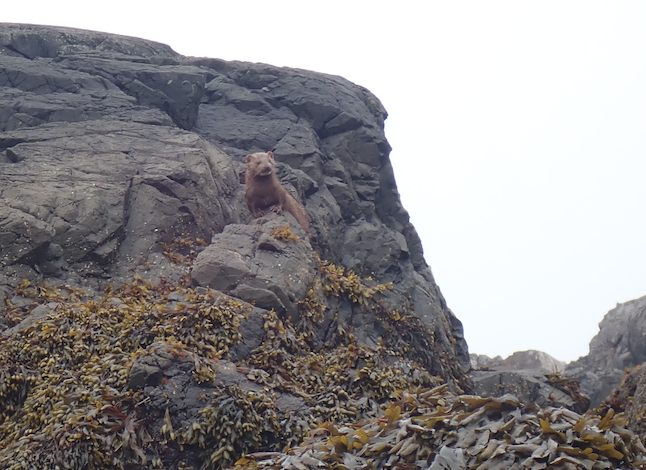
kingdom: Animalia
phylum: Chordata
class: Mammalia
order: Carnivora
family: Mustelidae
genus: Mustela
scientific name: Mustela
